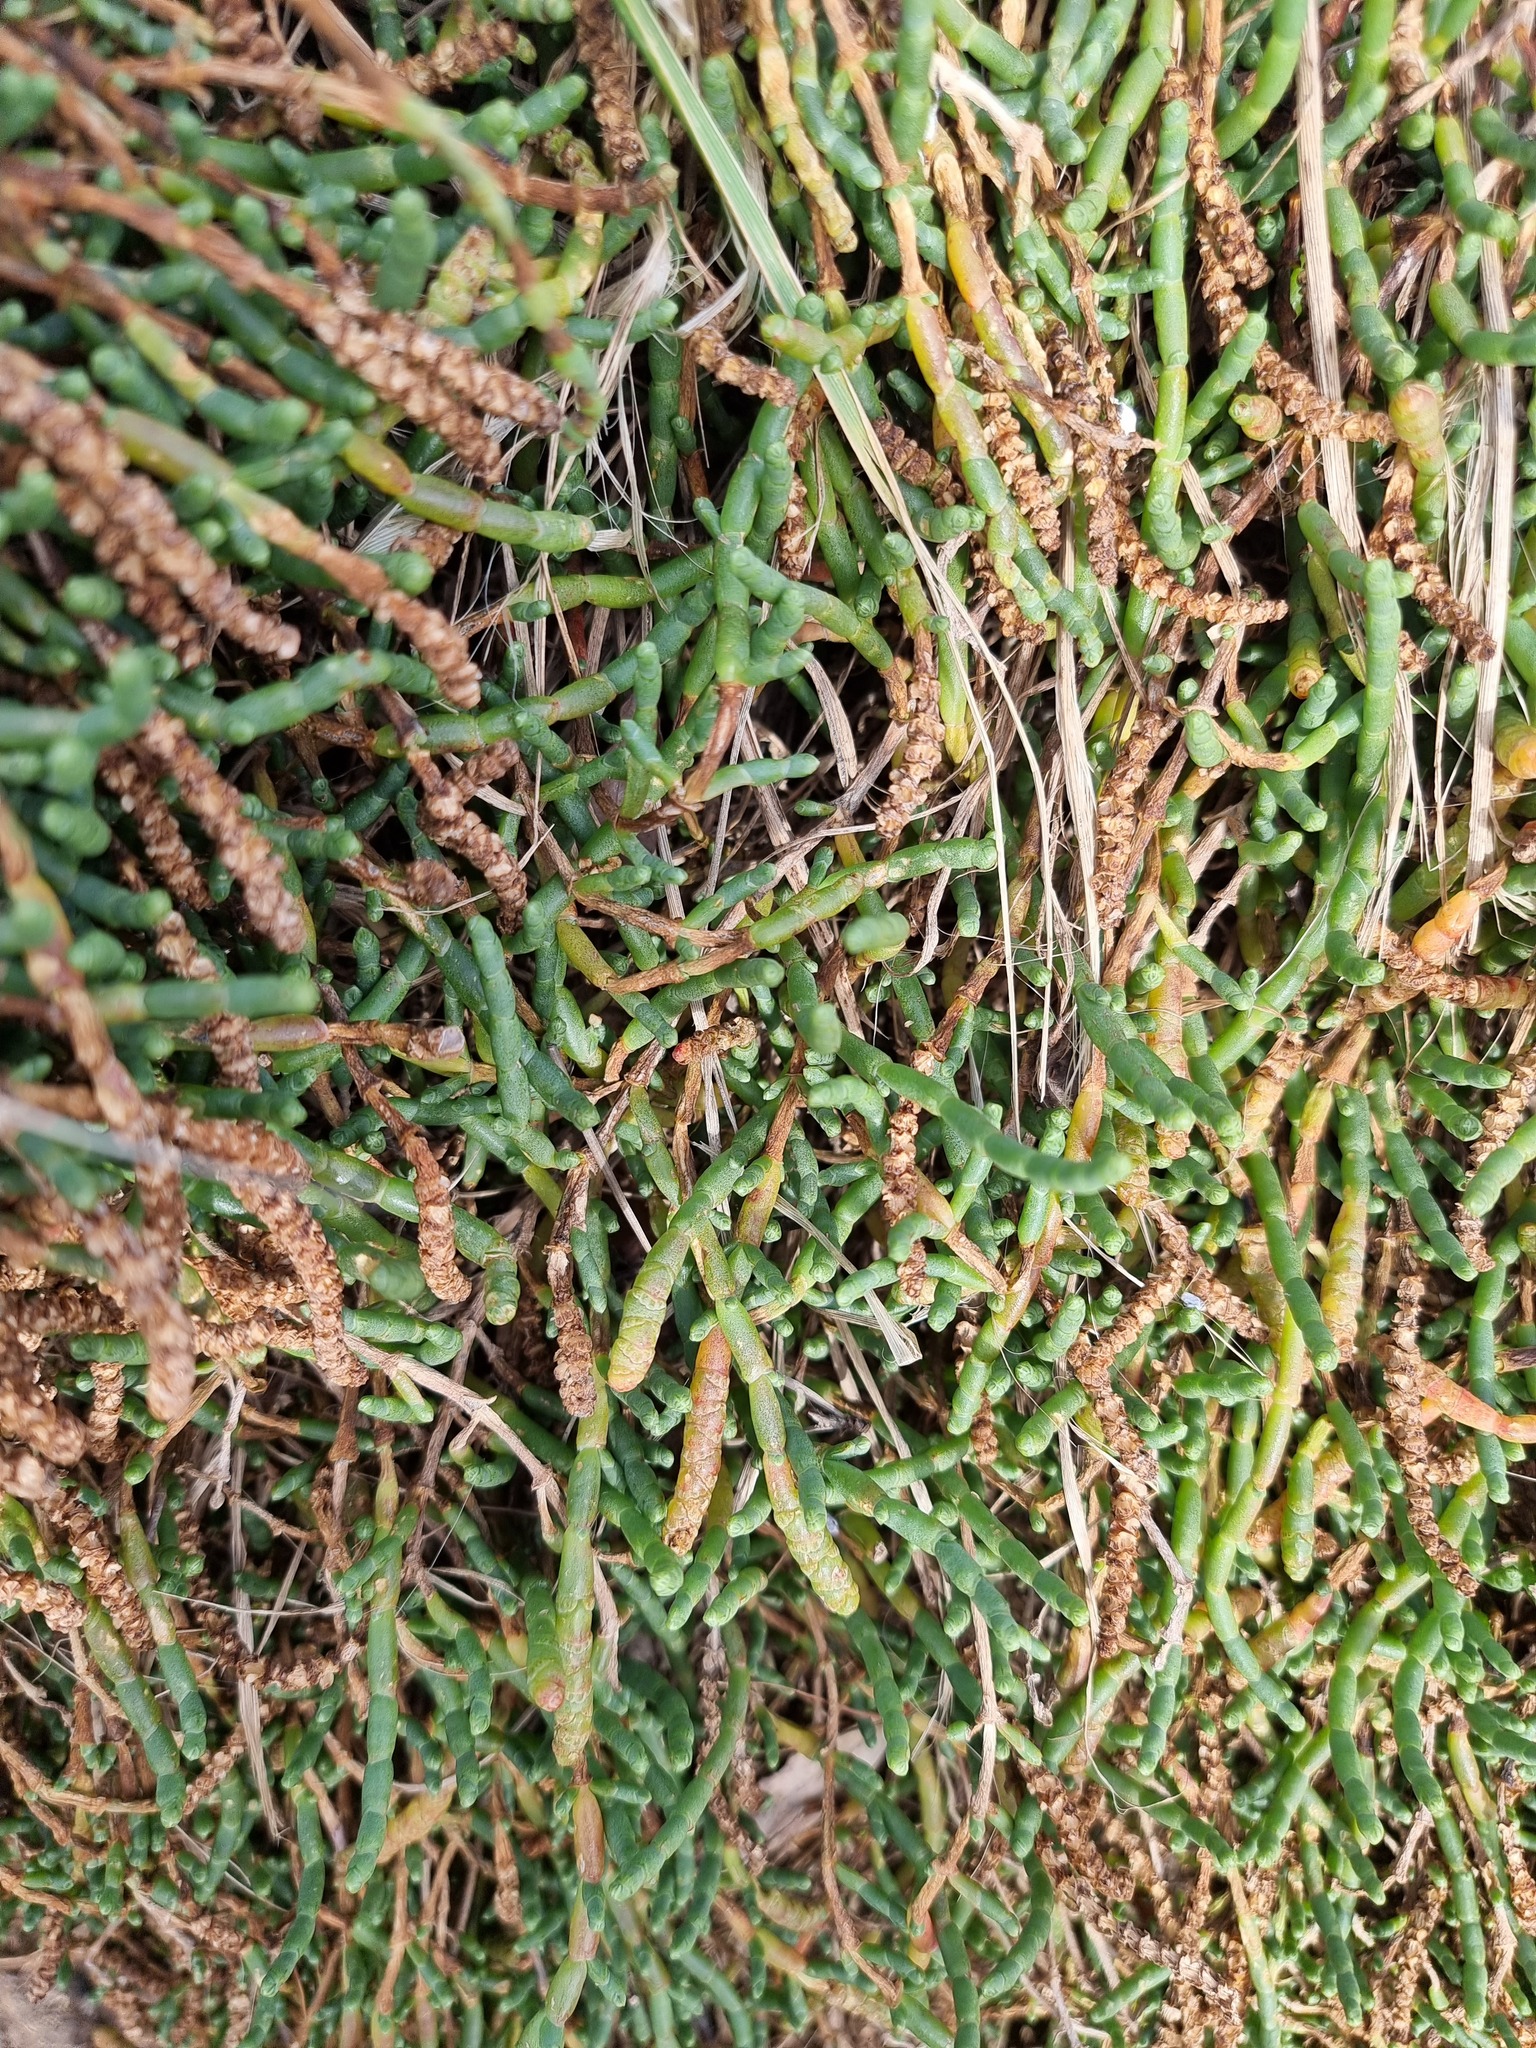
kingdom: Plantae
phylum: Tracheophyta
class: Magnoliopsida
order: Caryophyllales
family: Amaranthaceae
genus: Salicornia
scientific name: Salicornia quinqueflora
